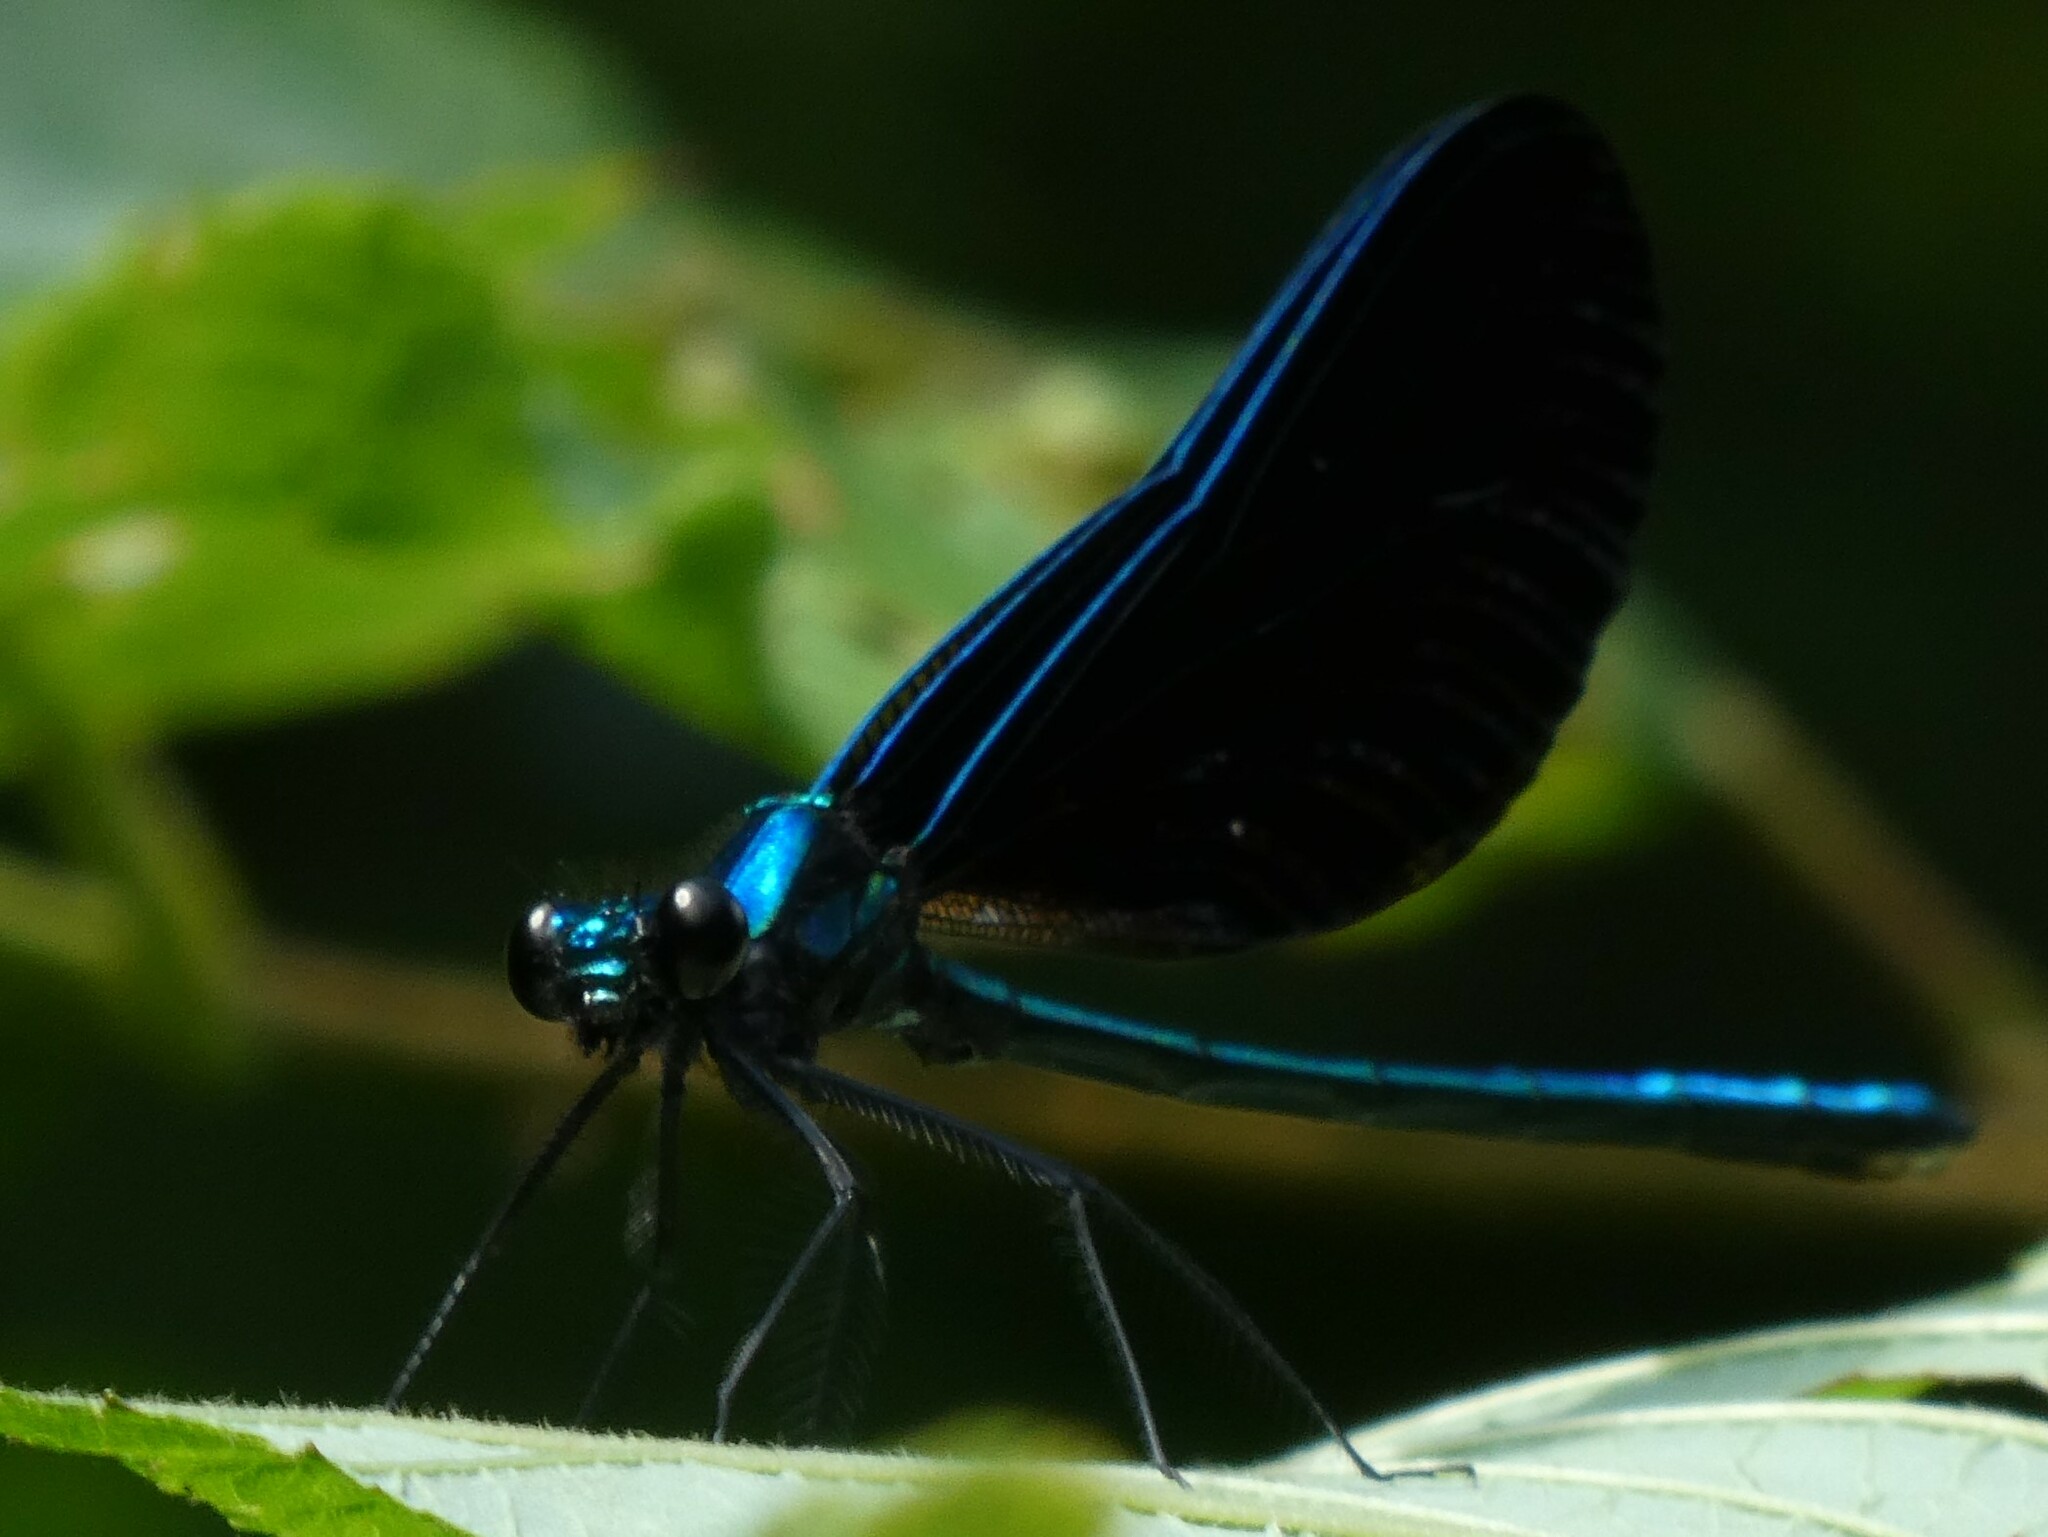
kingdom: Animalia
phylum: Arthropoda
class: Insecta
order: Odonata
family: Calopterygidae
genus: Calopteryx
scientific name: Calopteryx maculata
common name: Ebony jewelwing
